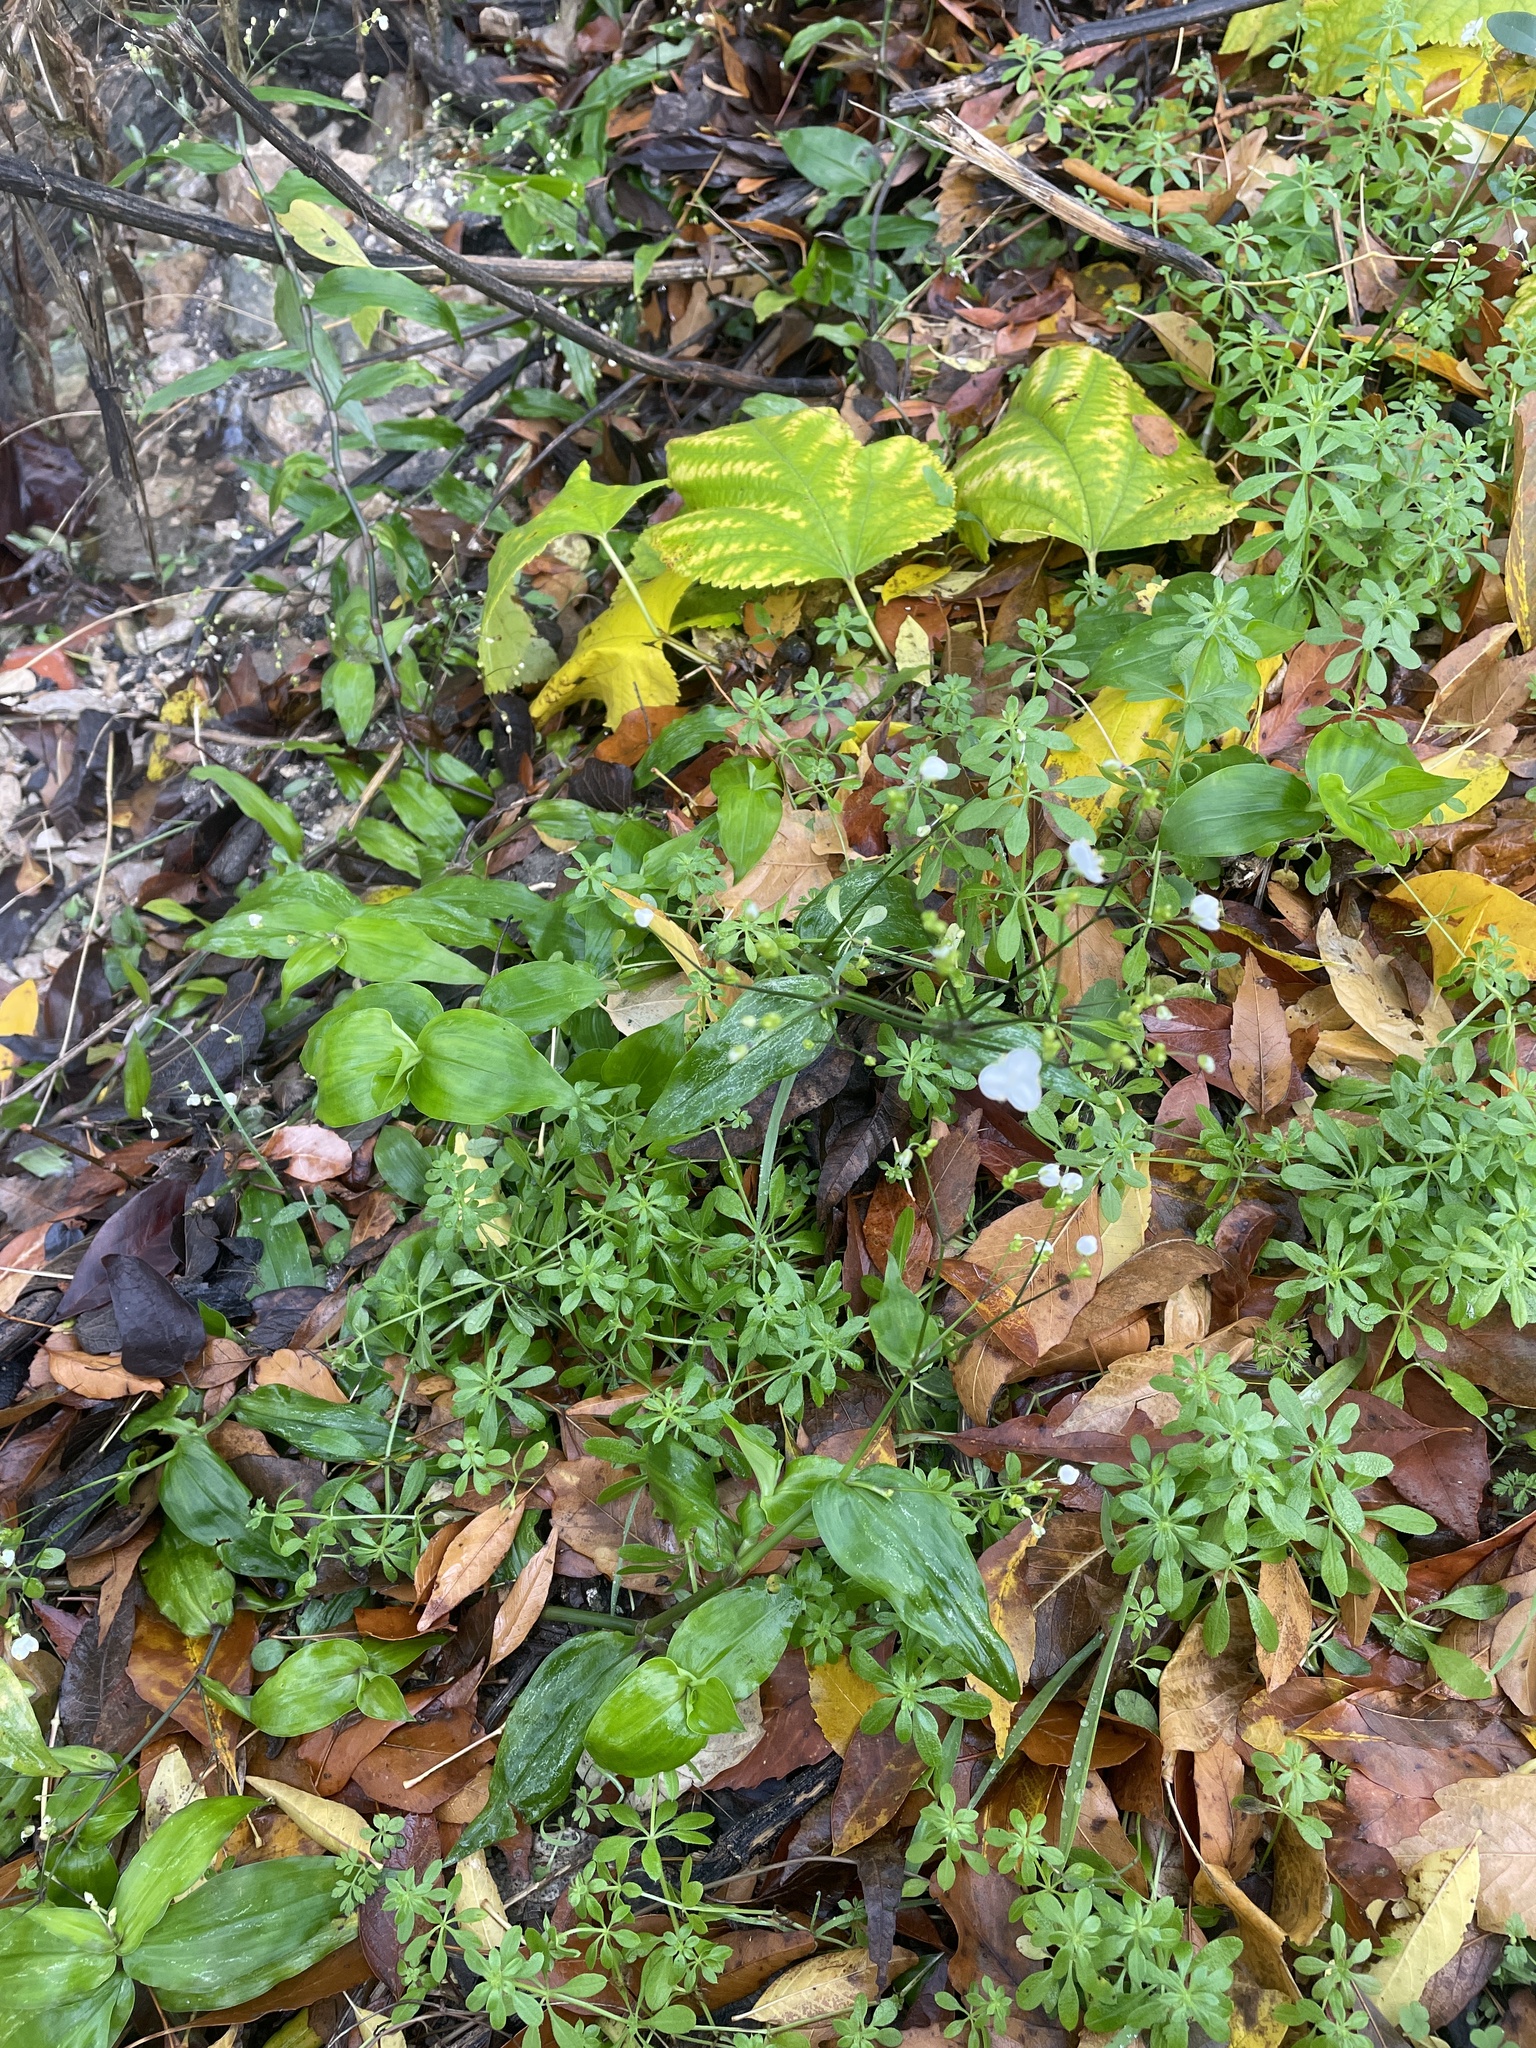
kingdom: Plantae
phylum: Tracheophyta
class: Liliopsida
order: Commelinales
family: Commelinaceae
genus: Gibasis
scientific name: Gibasis pellucida
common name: Dotted bridalveil
